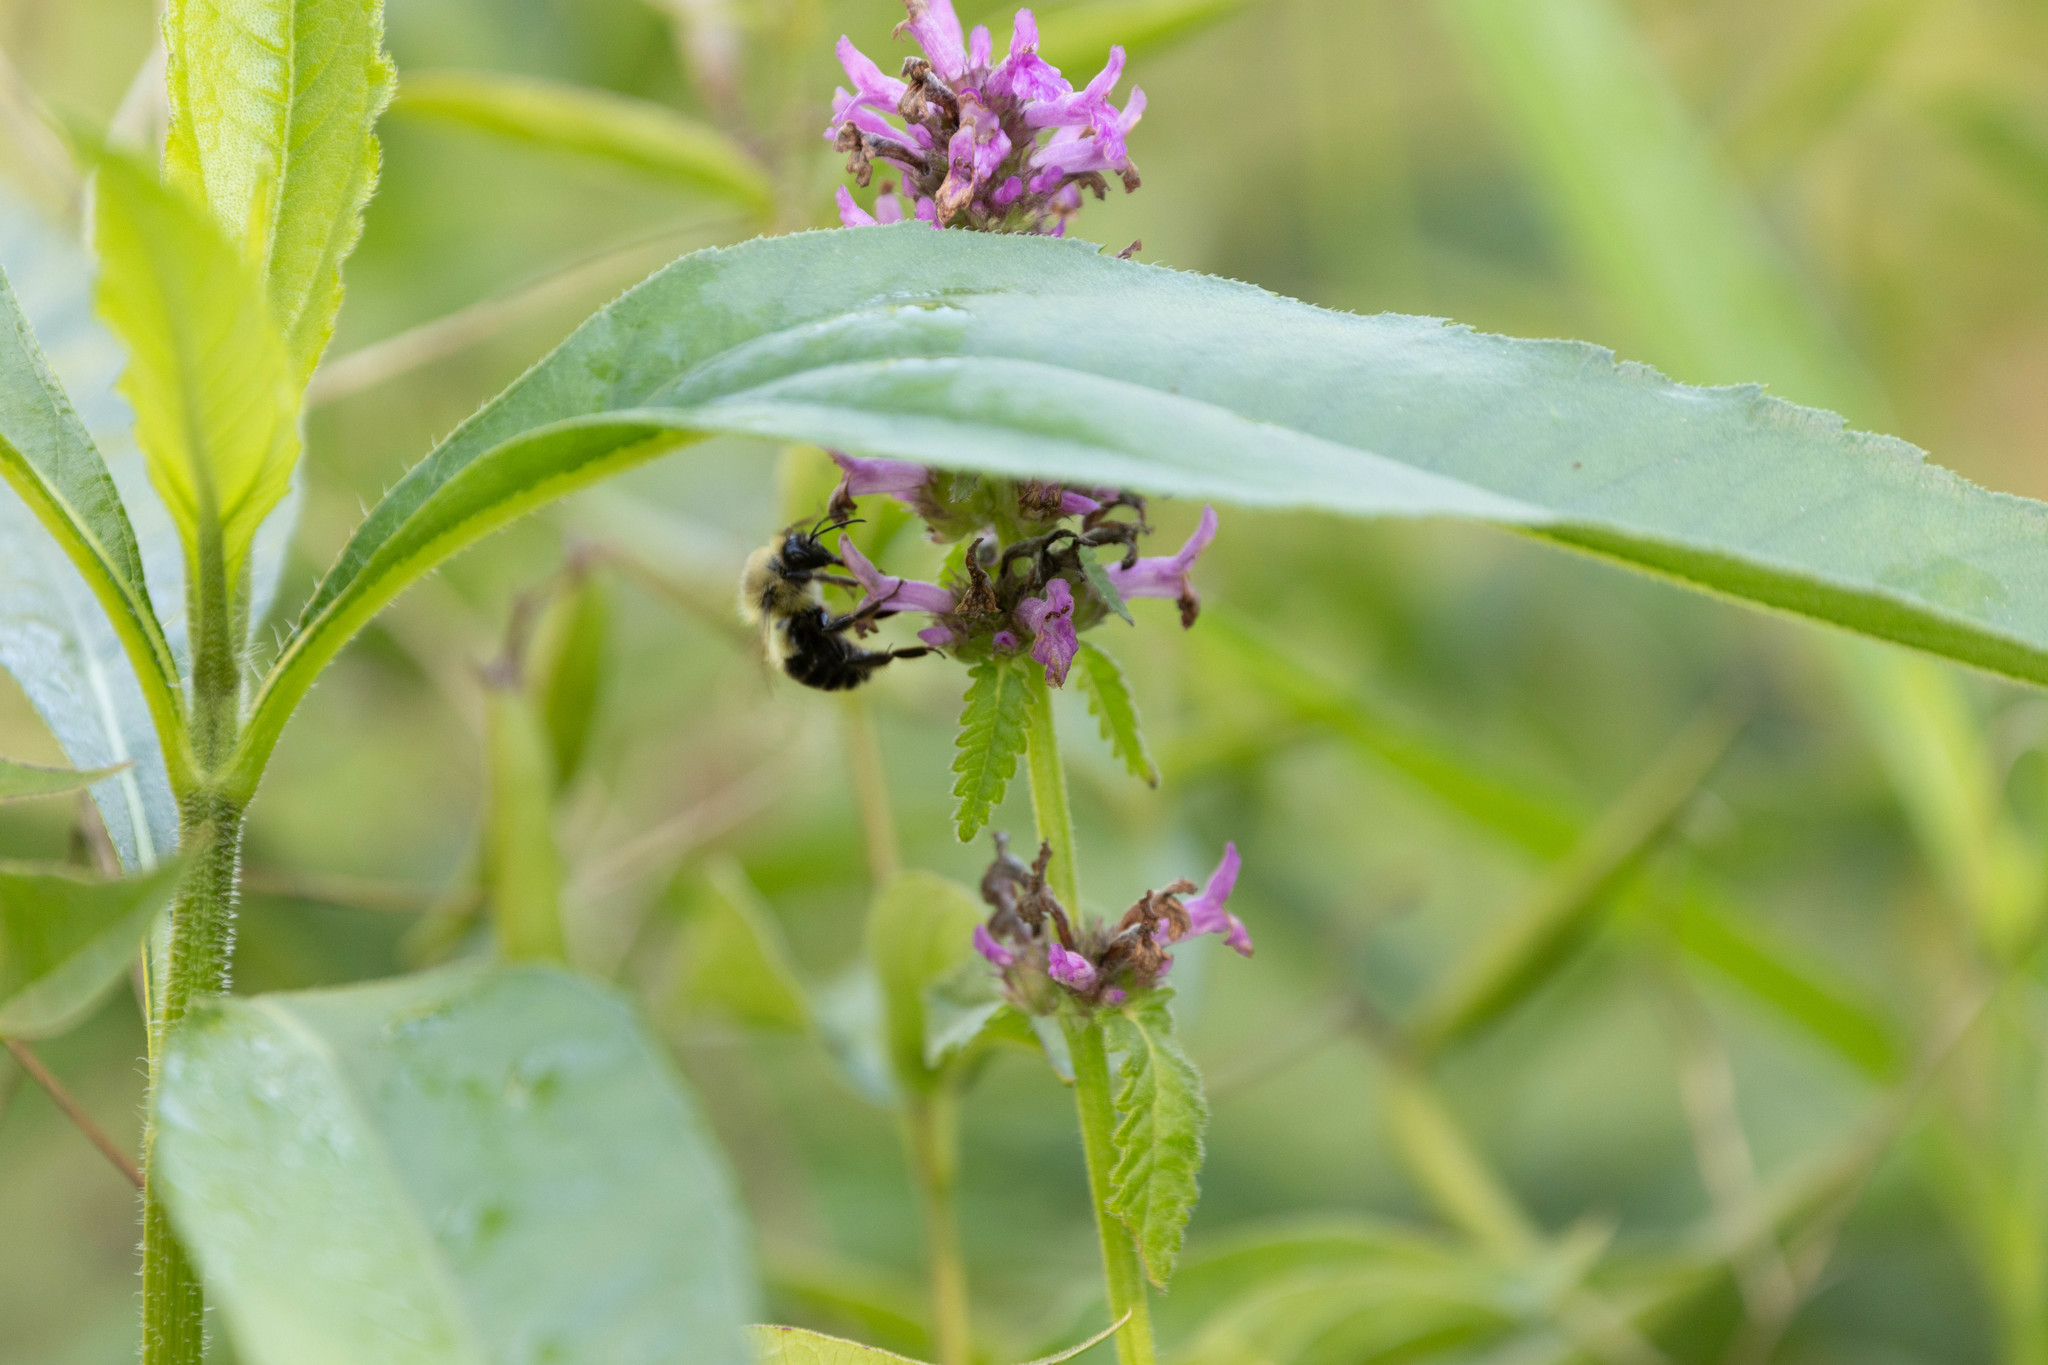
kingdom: Animalia
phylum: Arthropoda
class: Insecta
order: Hymenoptera
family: Apidae
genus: Bombus
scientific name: Bombus bimaculatus
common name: Two-spotted bumble bee
